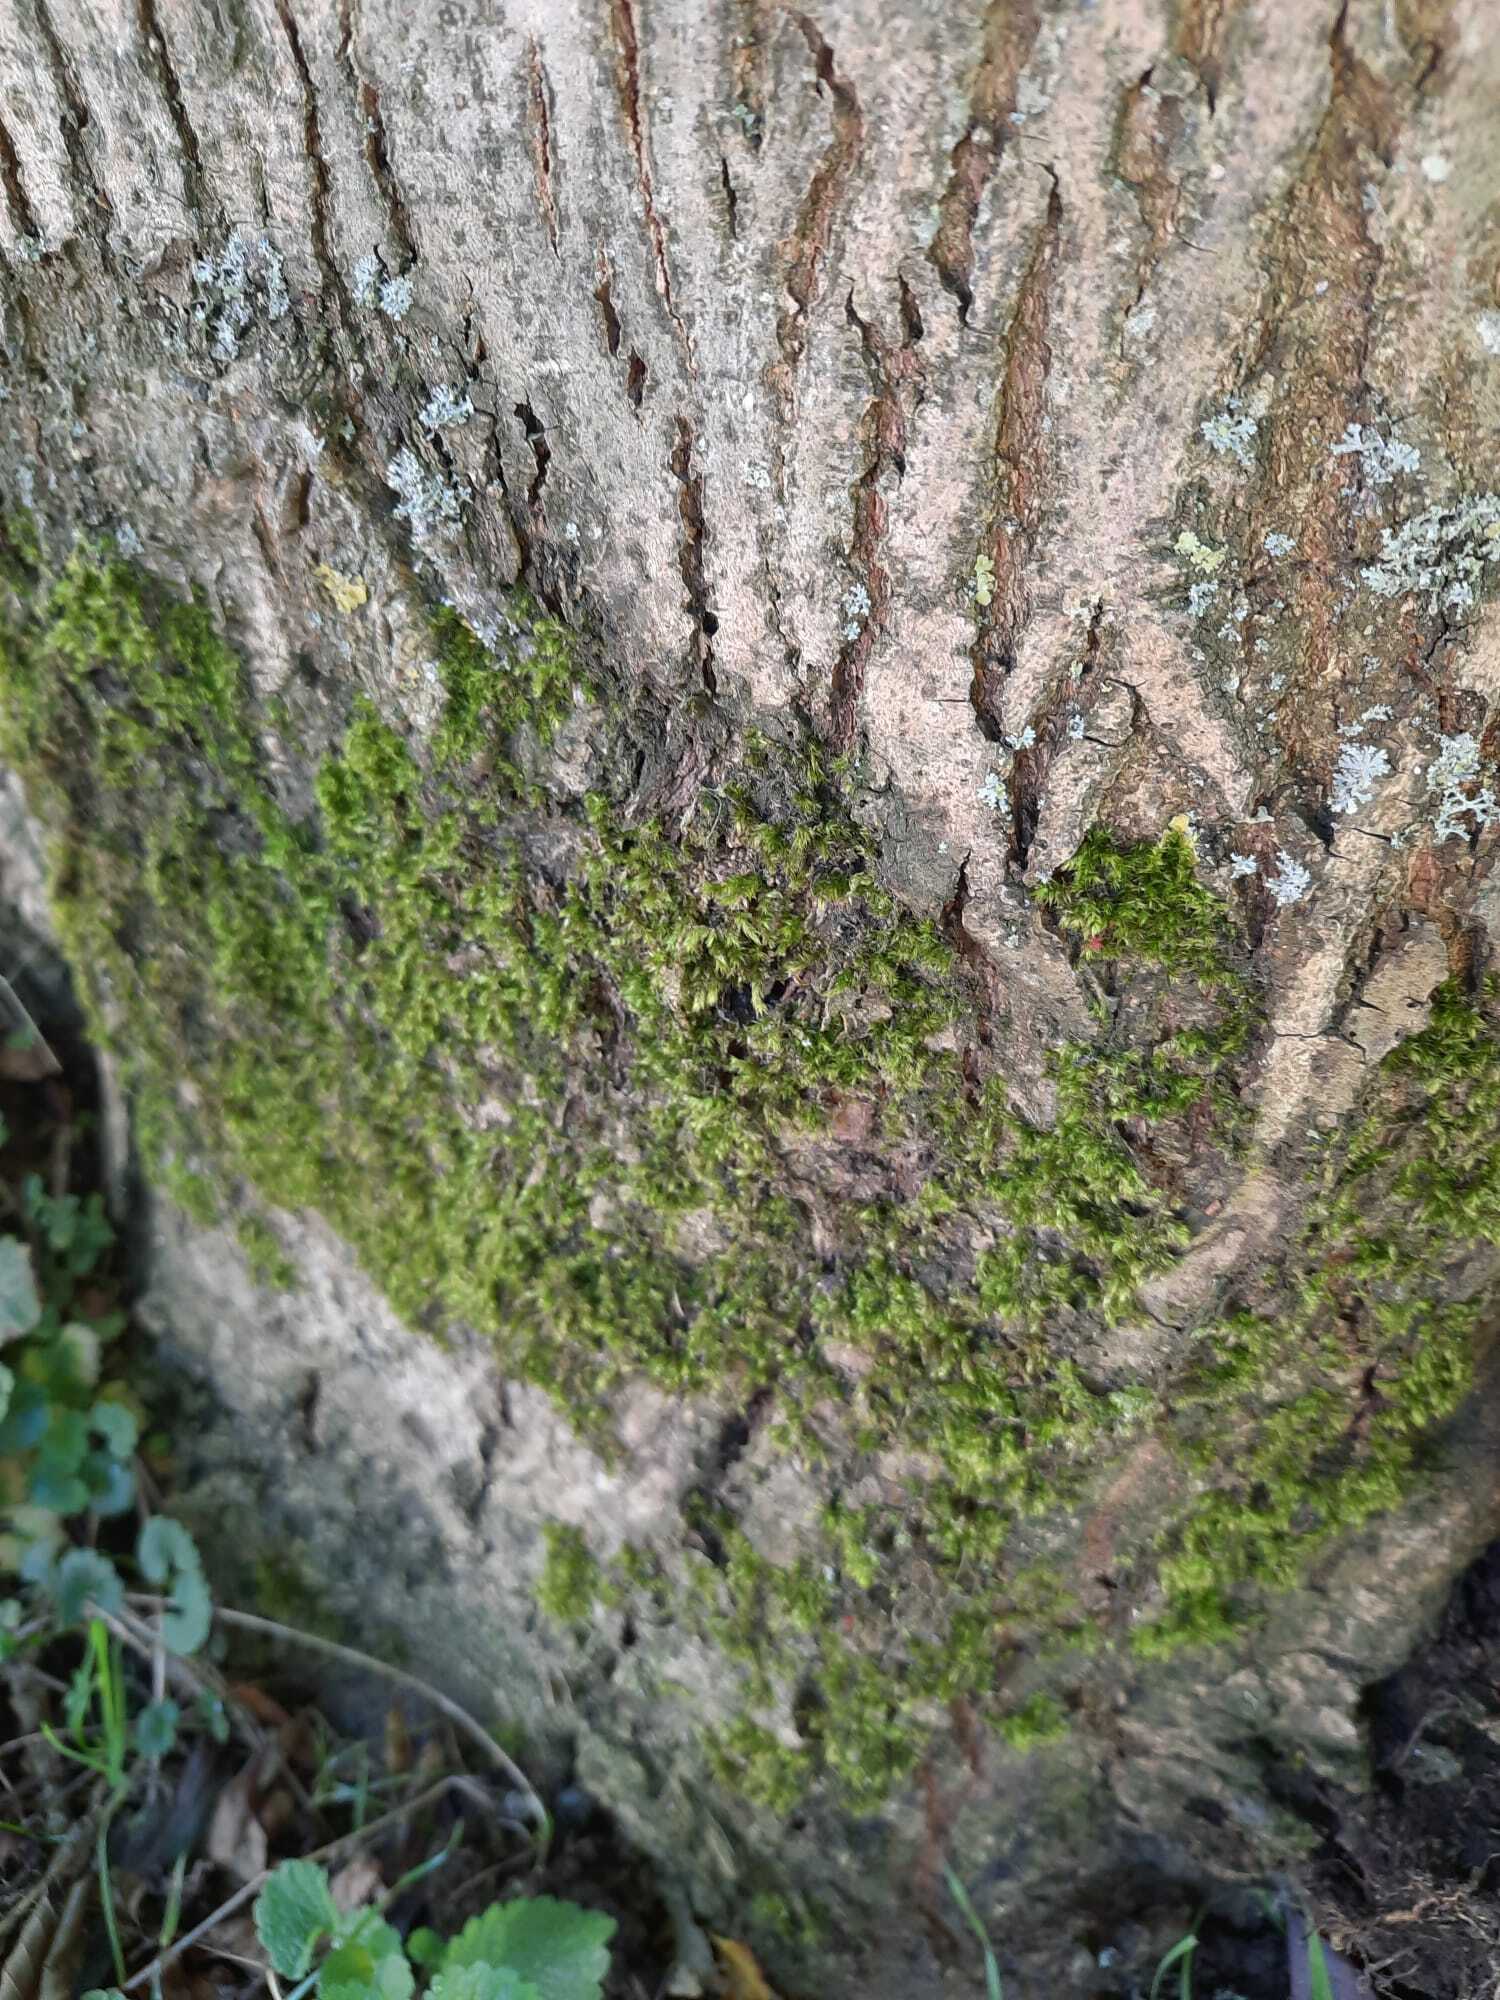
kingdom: Plantae
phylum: Bryophyta
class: Bryopsida
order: Hypnales
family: Brachytheciaceae
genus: Brachythecium
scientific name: Brachythecium rutabulum
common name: Rough-stalked feather-moss
